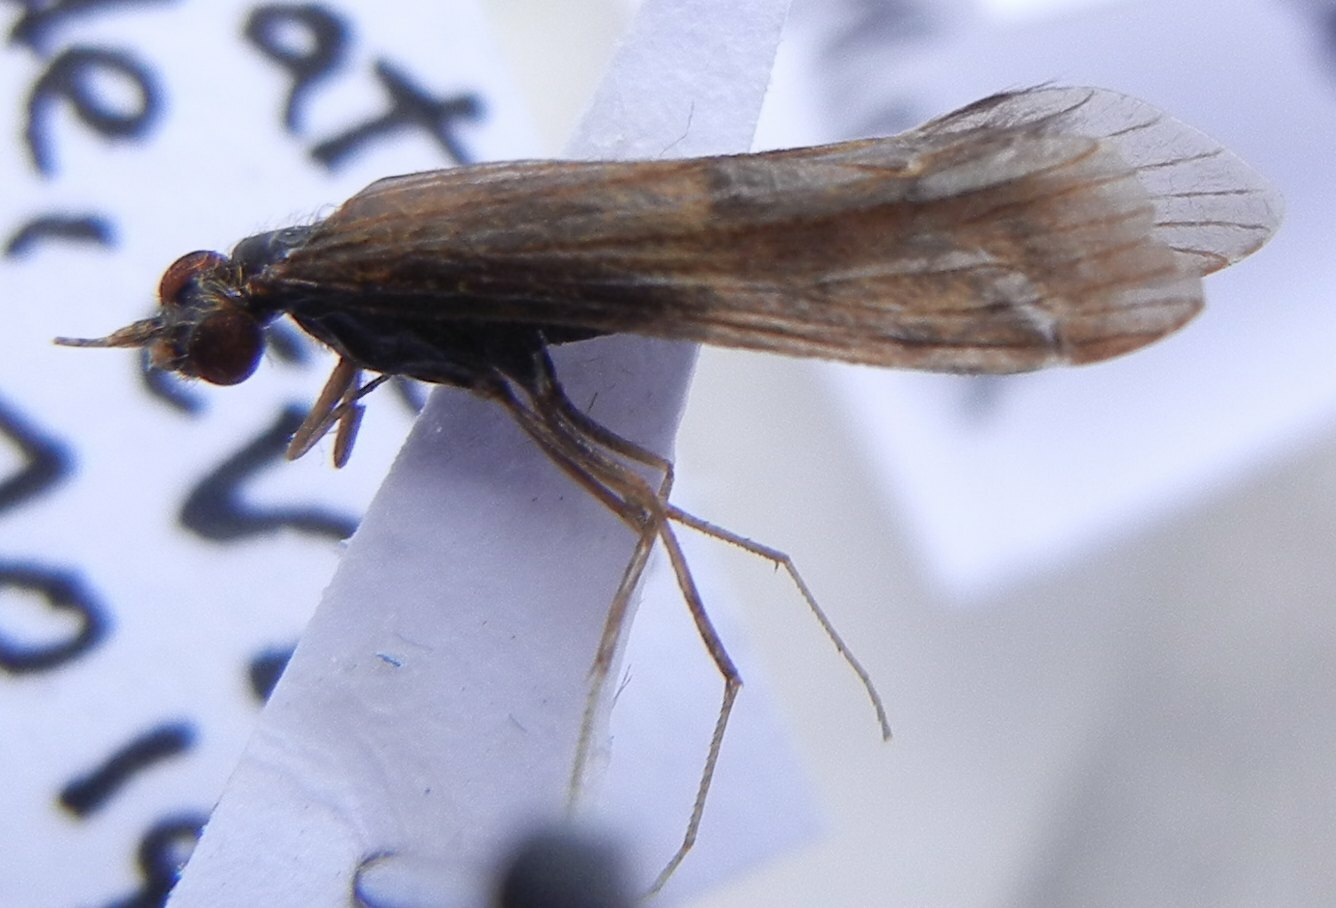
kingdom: Animalia
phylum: Arthropoda
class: Insecta
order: Trichoptera
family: Leptoceridae
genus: Mystacides
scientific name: Mystacides longicornis
